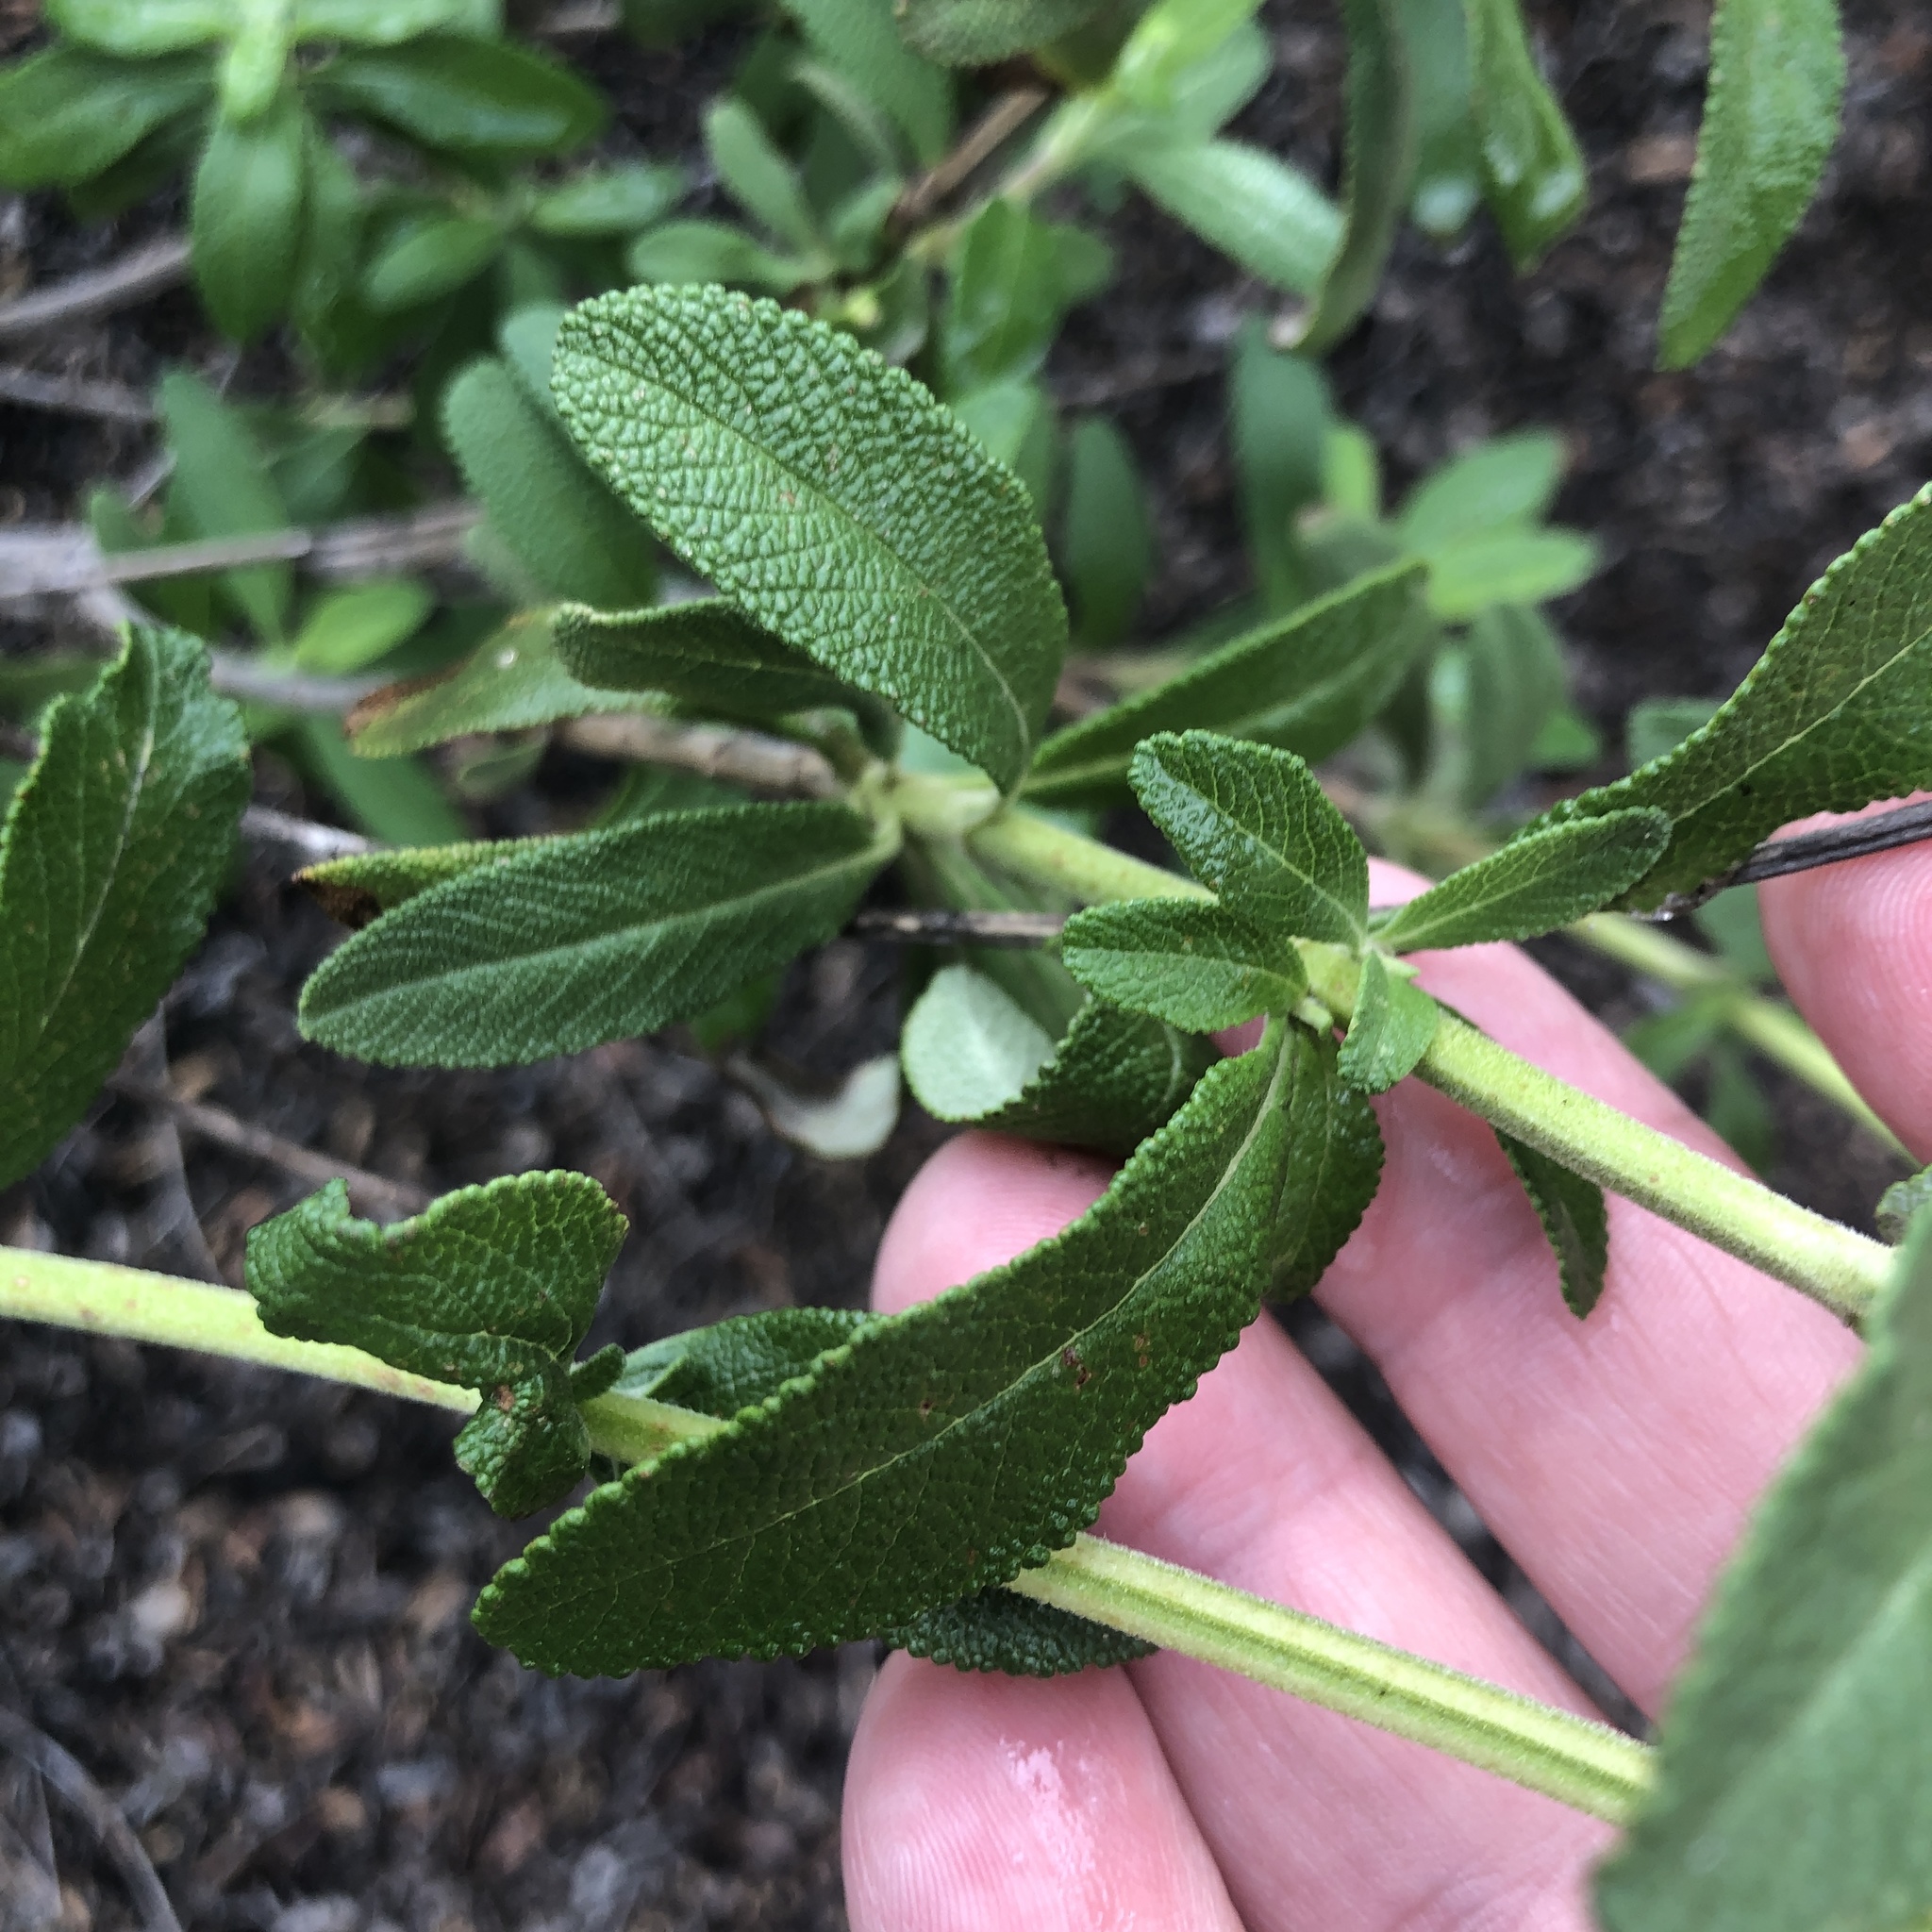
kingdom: Plantae
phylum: Tracheophyta
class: Magnoliopsida
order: Lamiales
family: Lamiaceae
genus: Salvia
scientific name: Salvia mellifera
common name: Black sage
